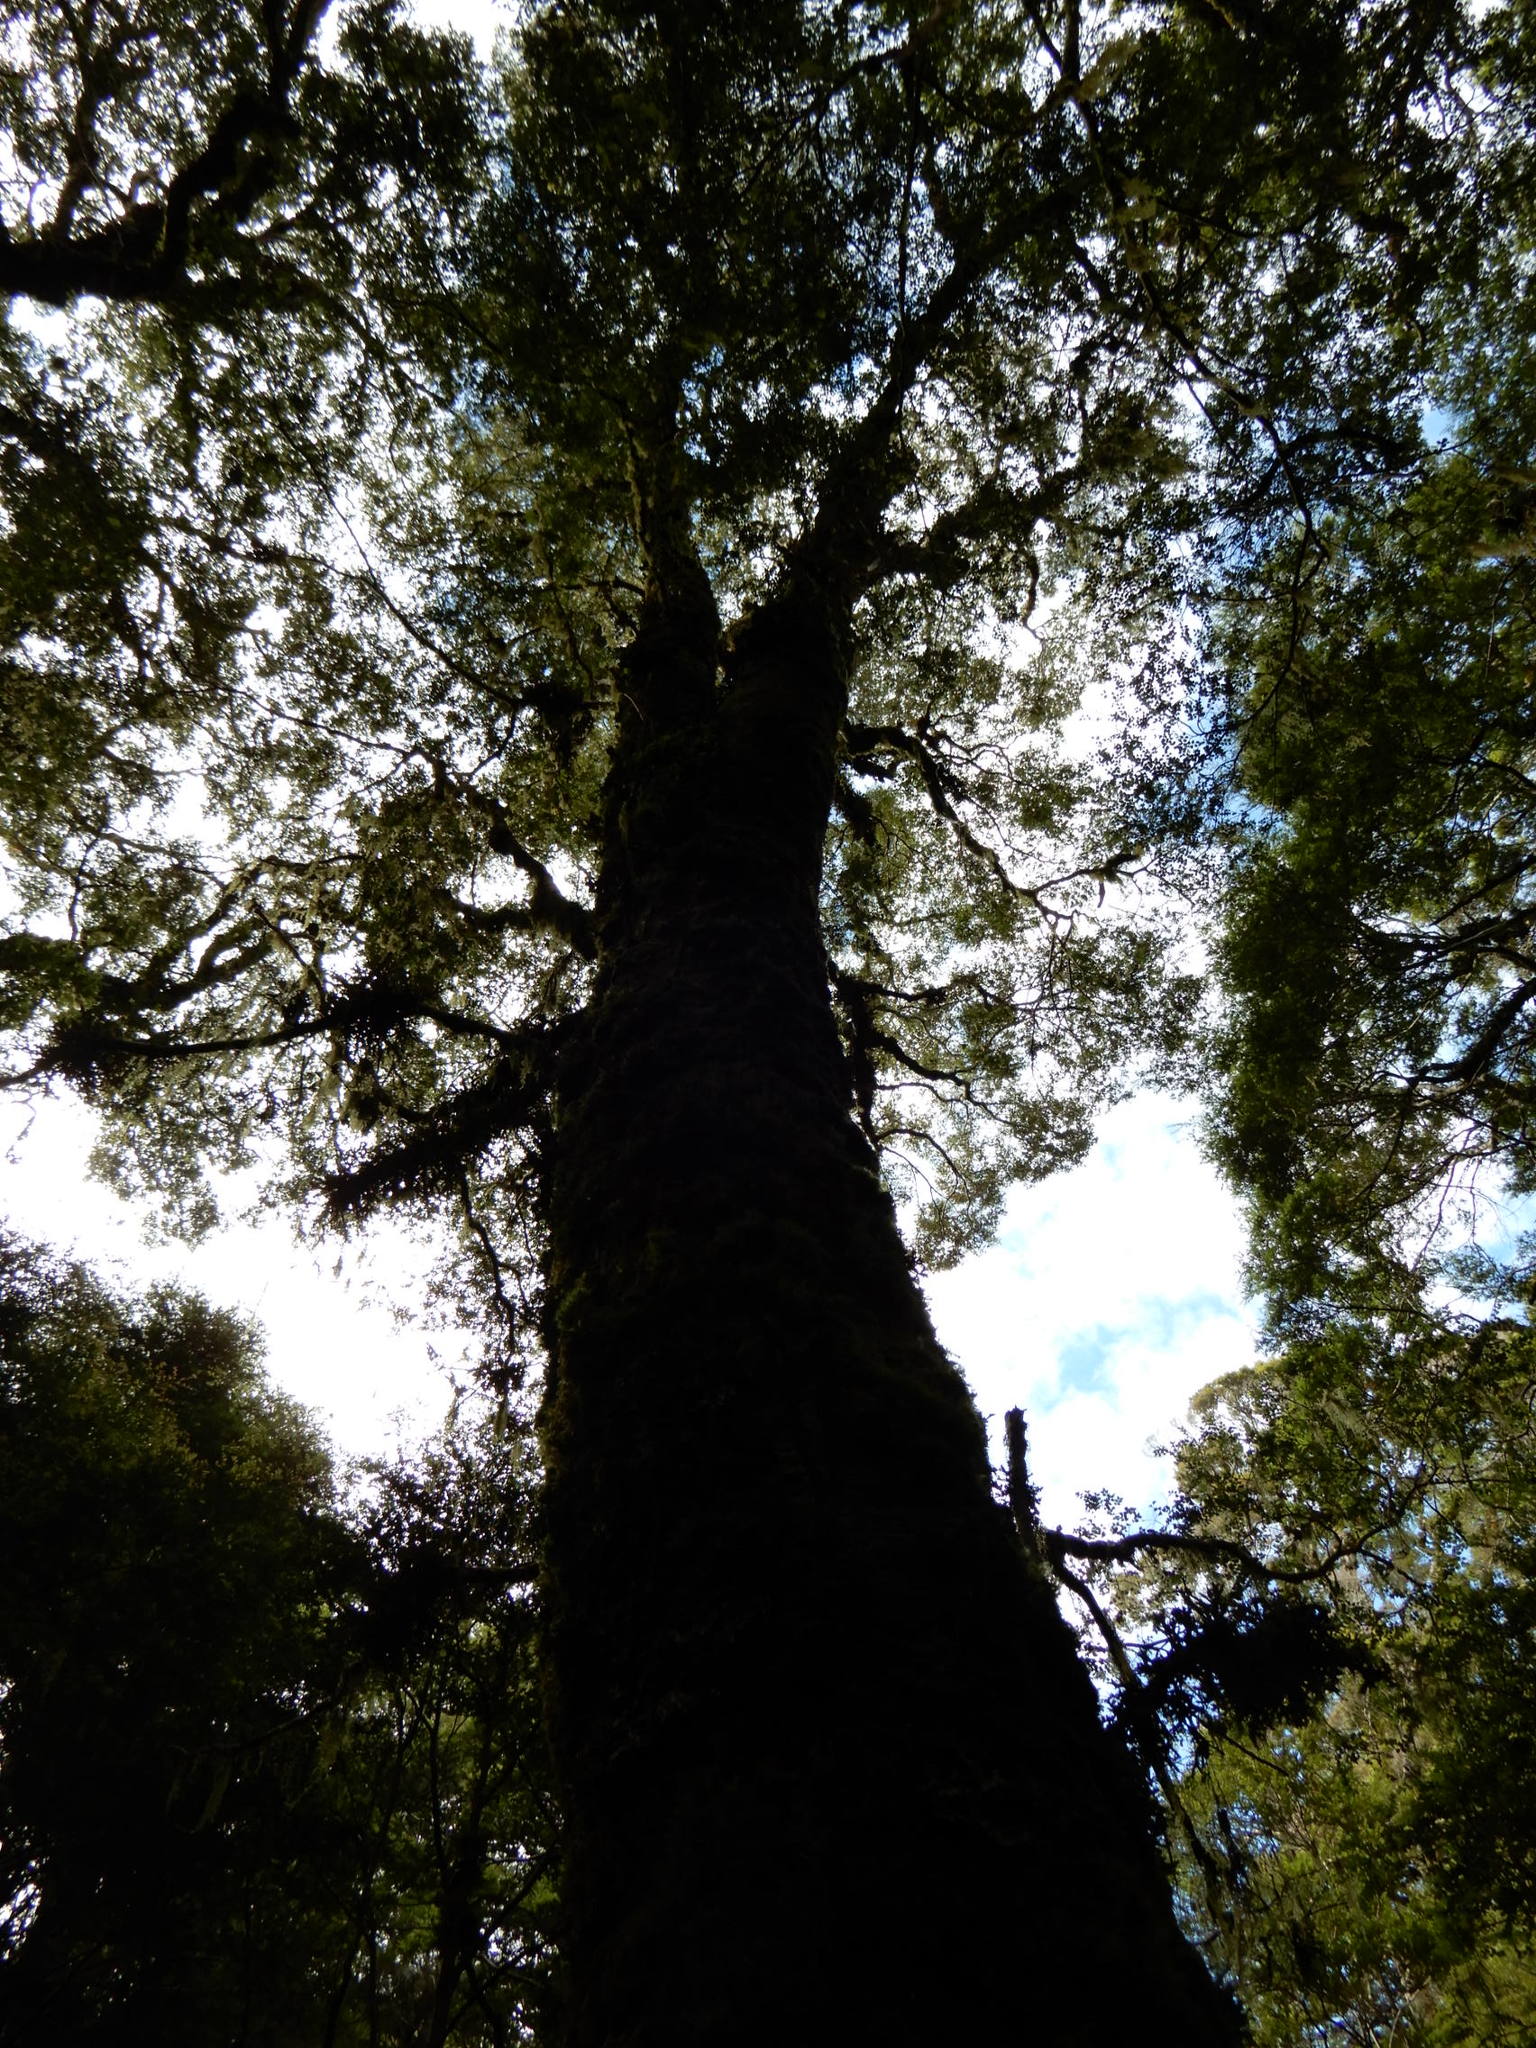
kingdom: Plantae
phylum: Tracheophyta
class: Magnoliopsida
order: Fagales
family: Nothofagaceae
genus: Nothofagus
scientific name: Nothofagus menziesii
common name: Silver beech
